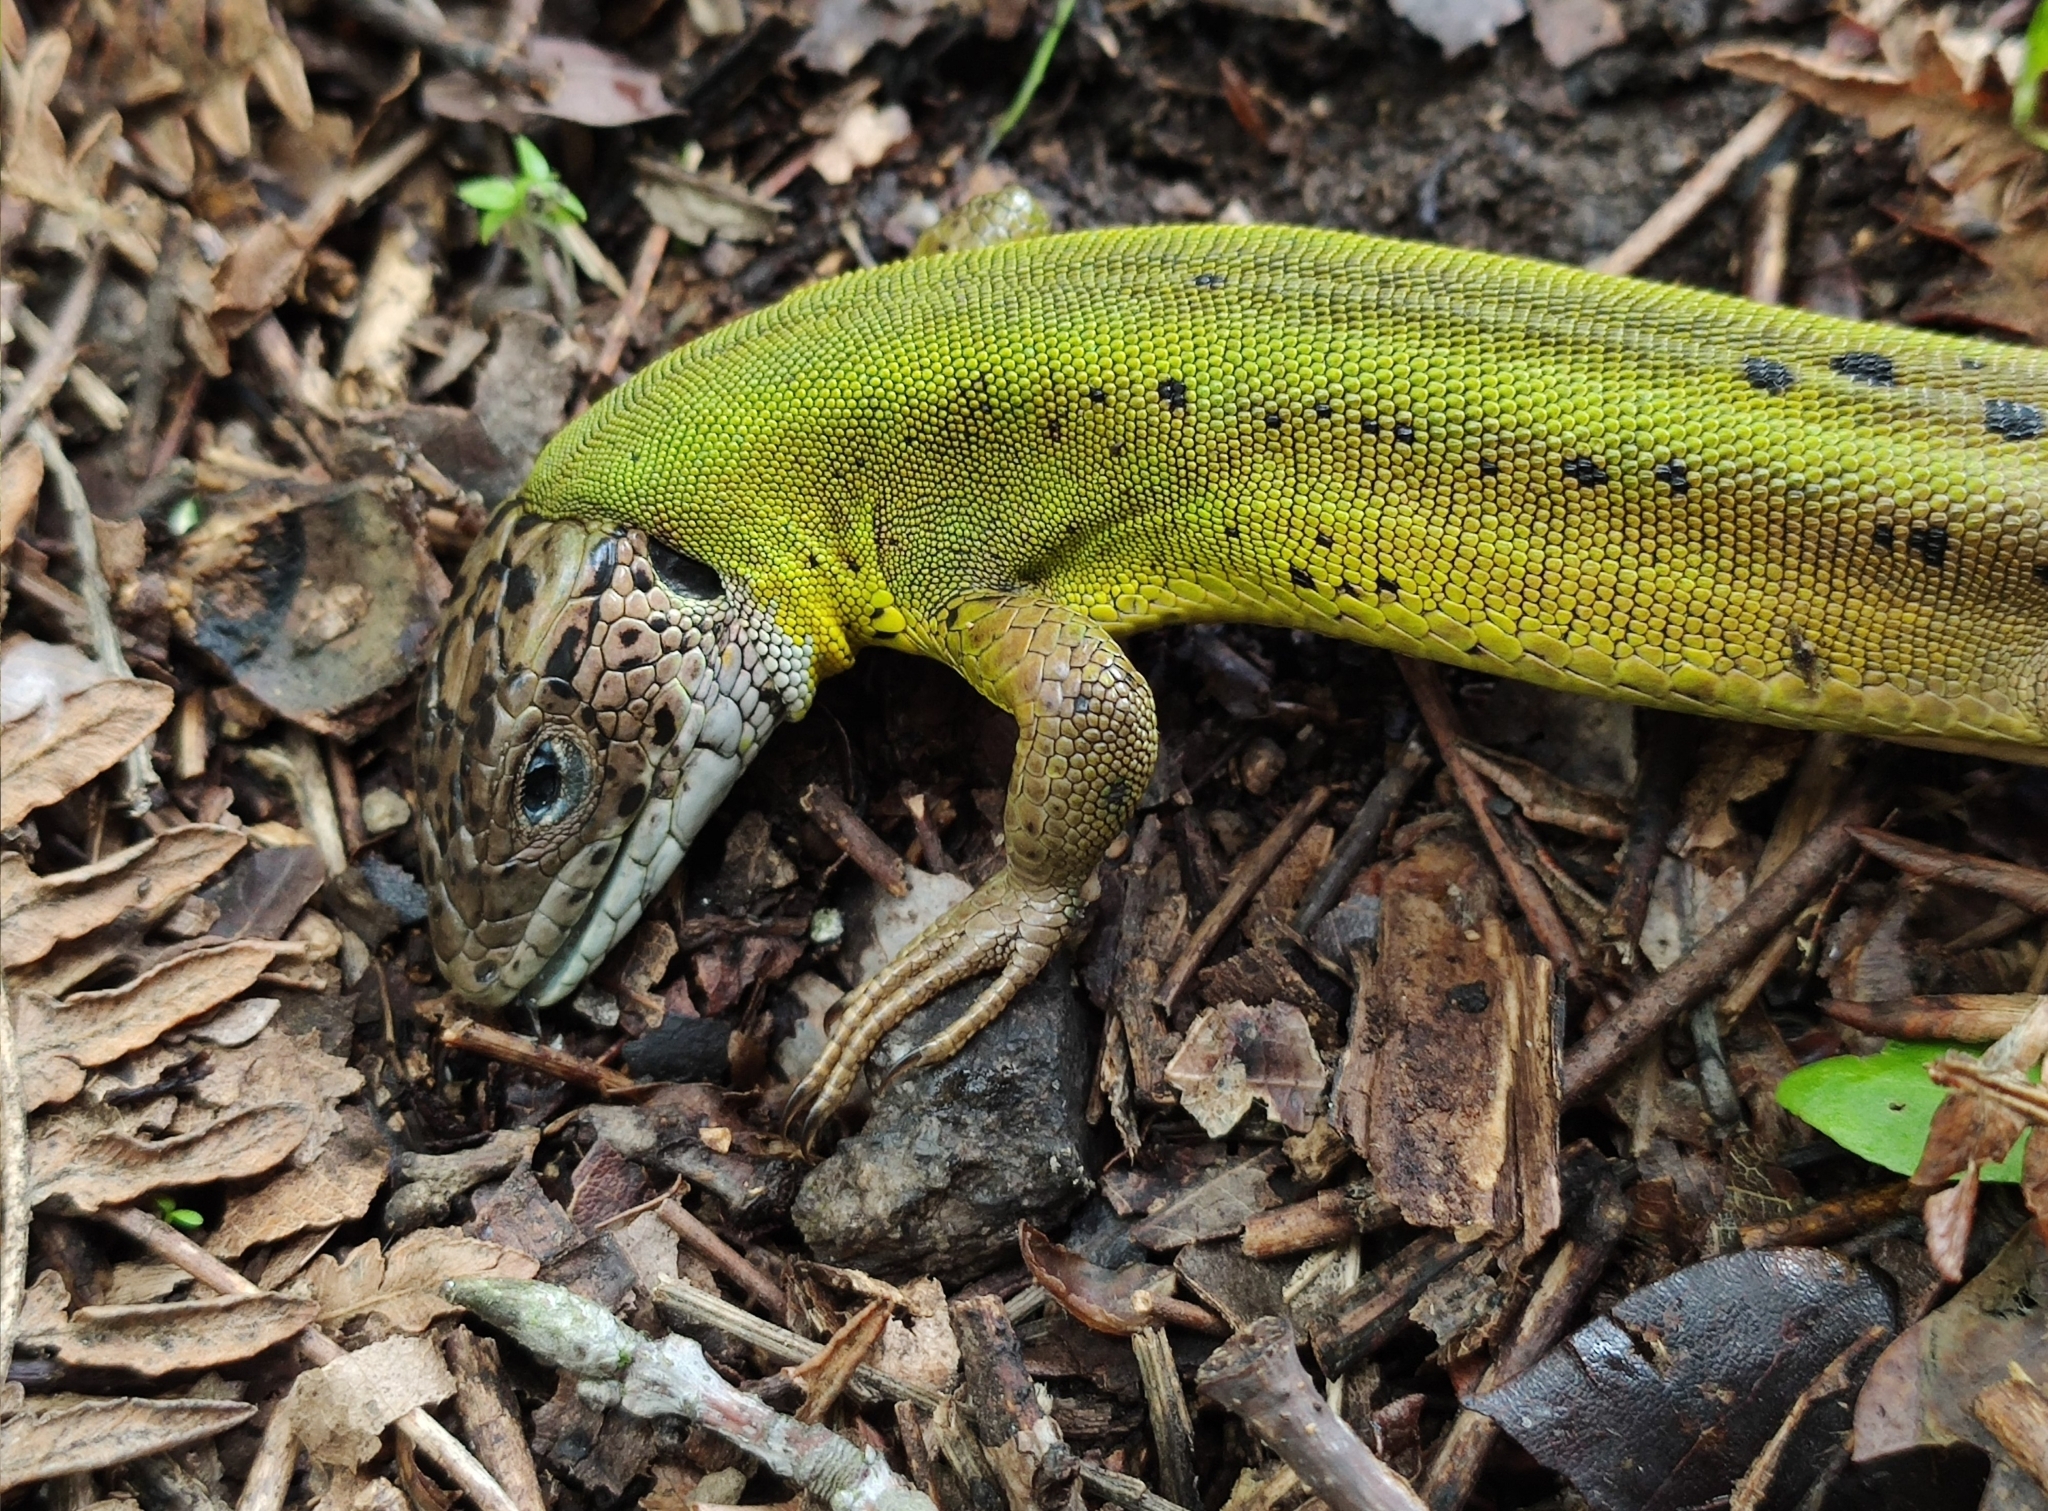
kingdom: Animalia
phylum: Chordata
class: Squamata
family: Lacertidae
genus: Lacerta
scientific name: Lacerta schreiberi
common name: Iberian emerald lizard
